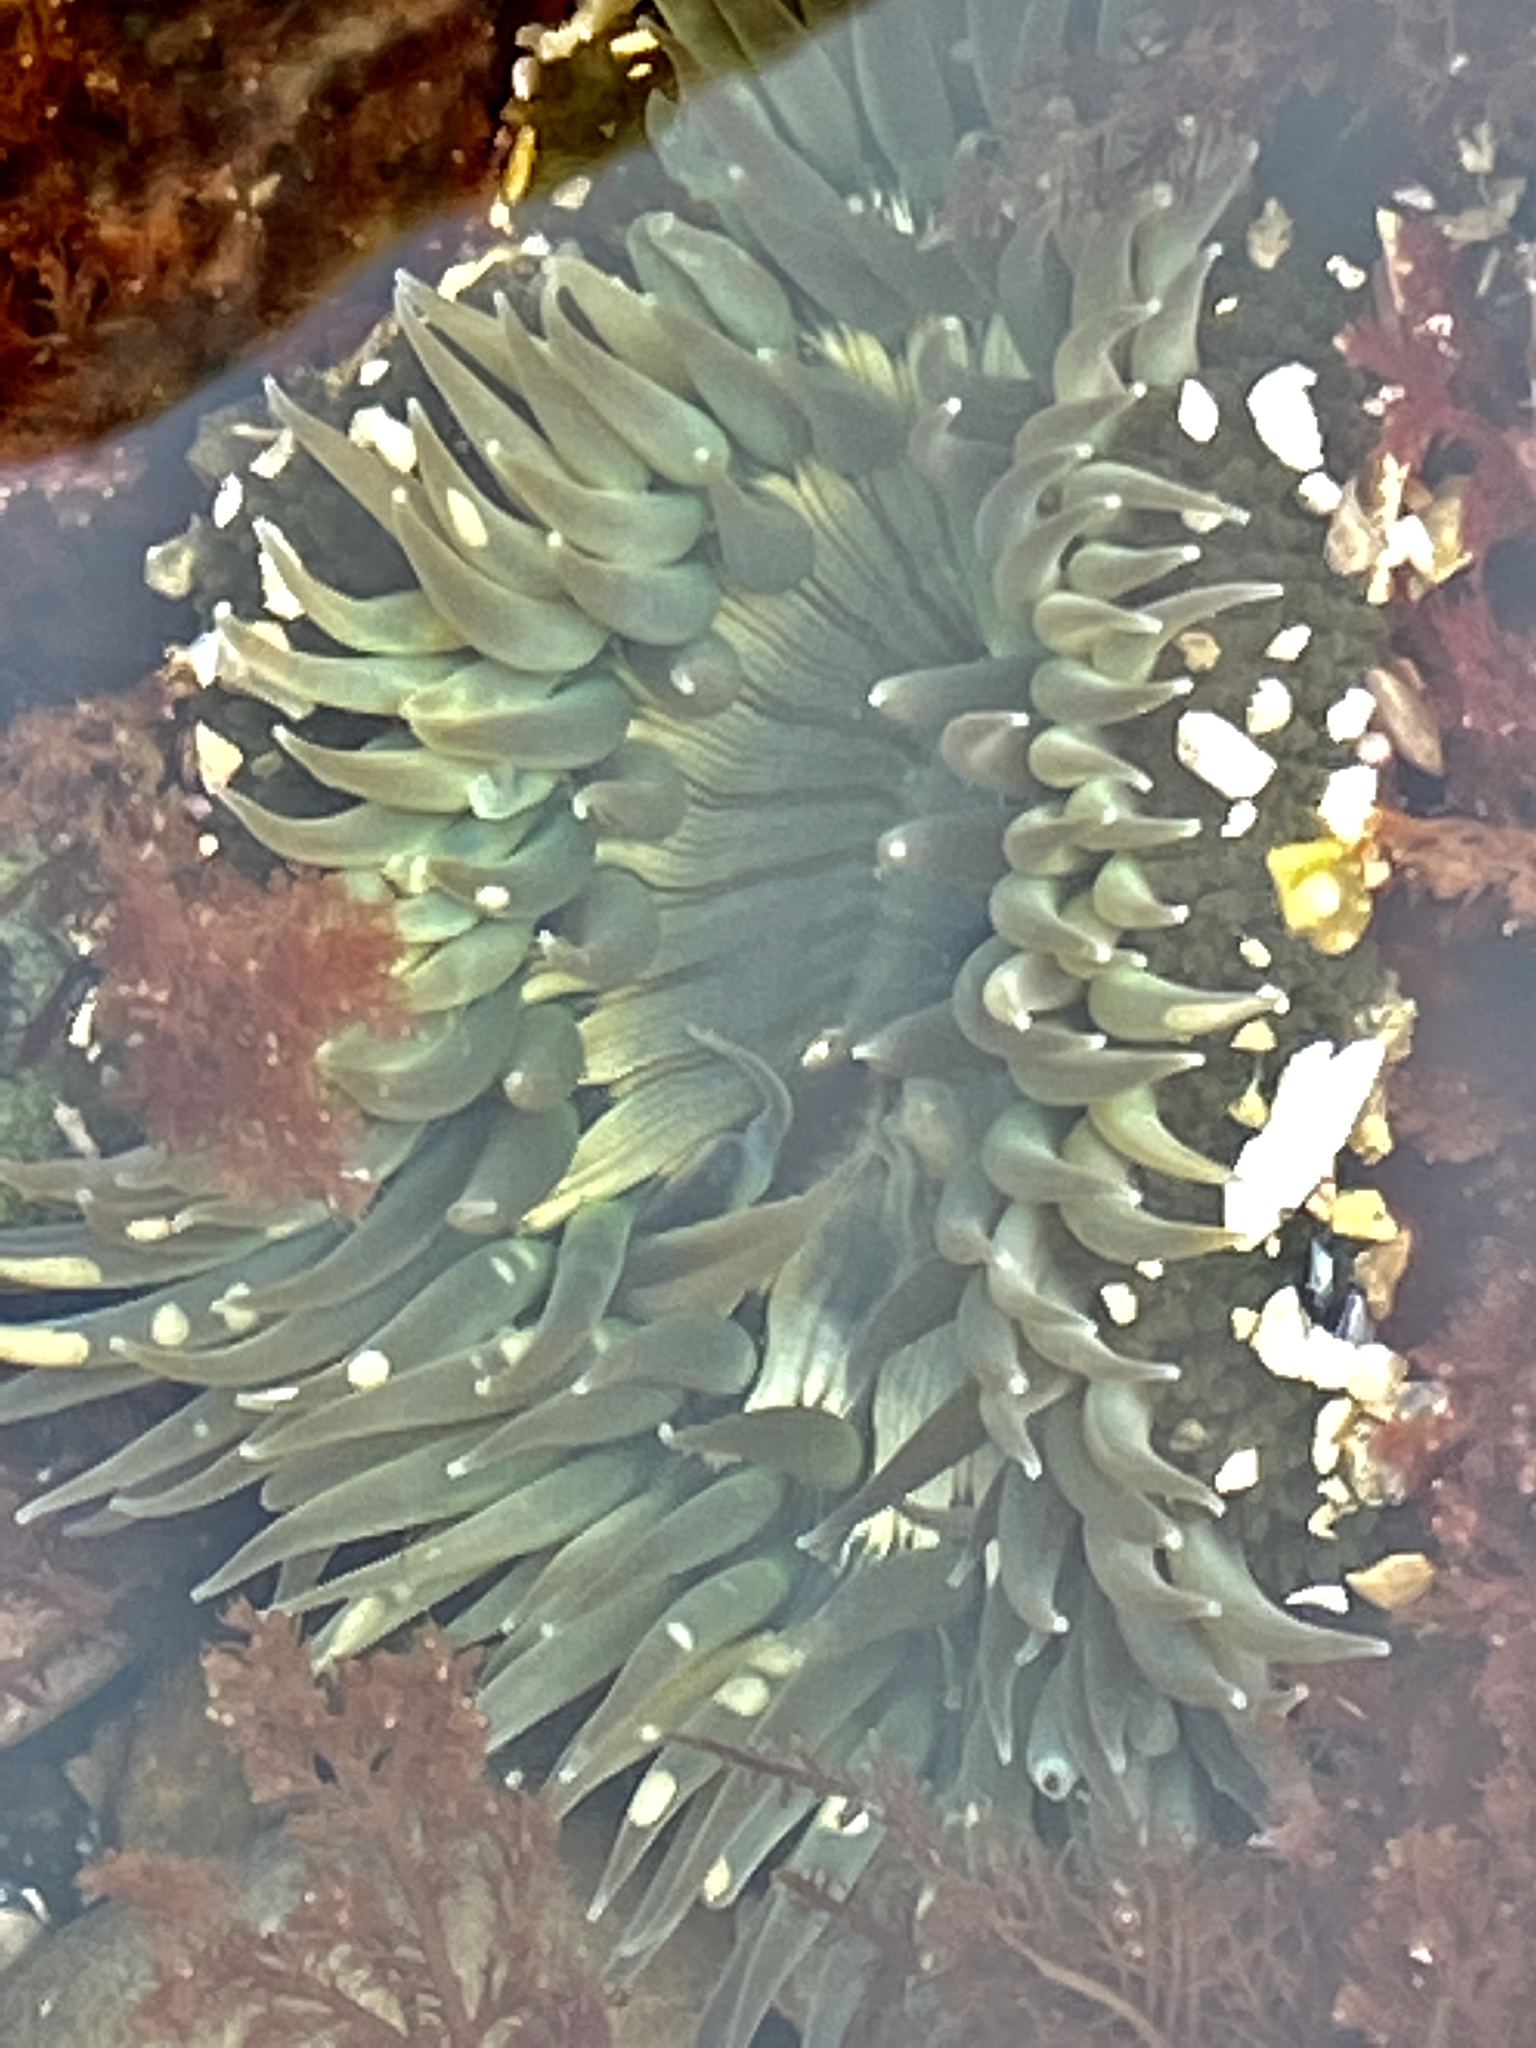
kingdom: Animalia
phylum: Cnidaria
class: Anthozoa
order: Actiniaria
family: Actiniidae
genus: Anthopleura
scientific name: Anthopleura sola
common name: Sun anemone
